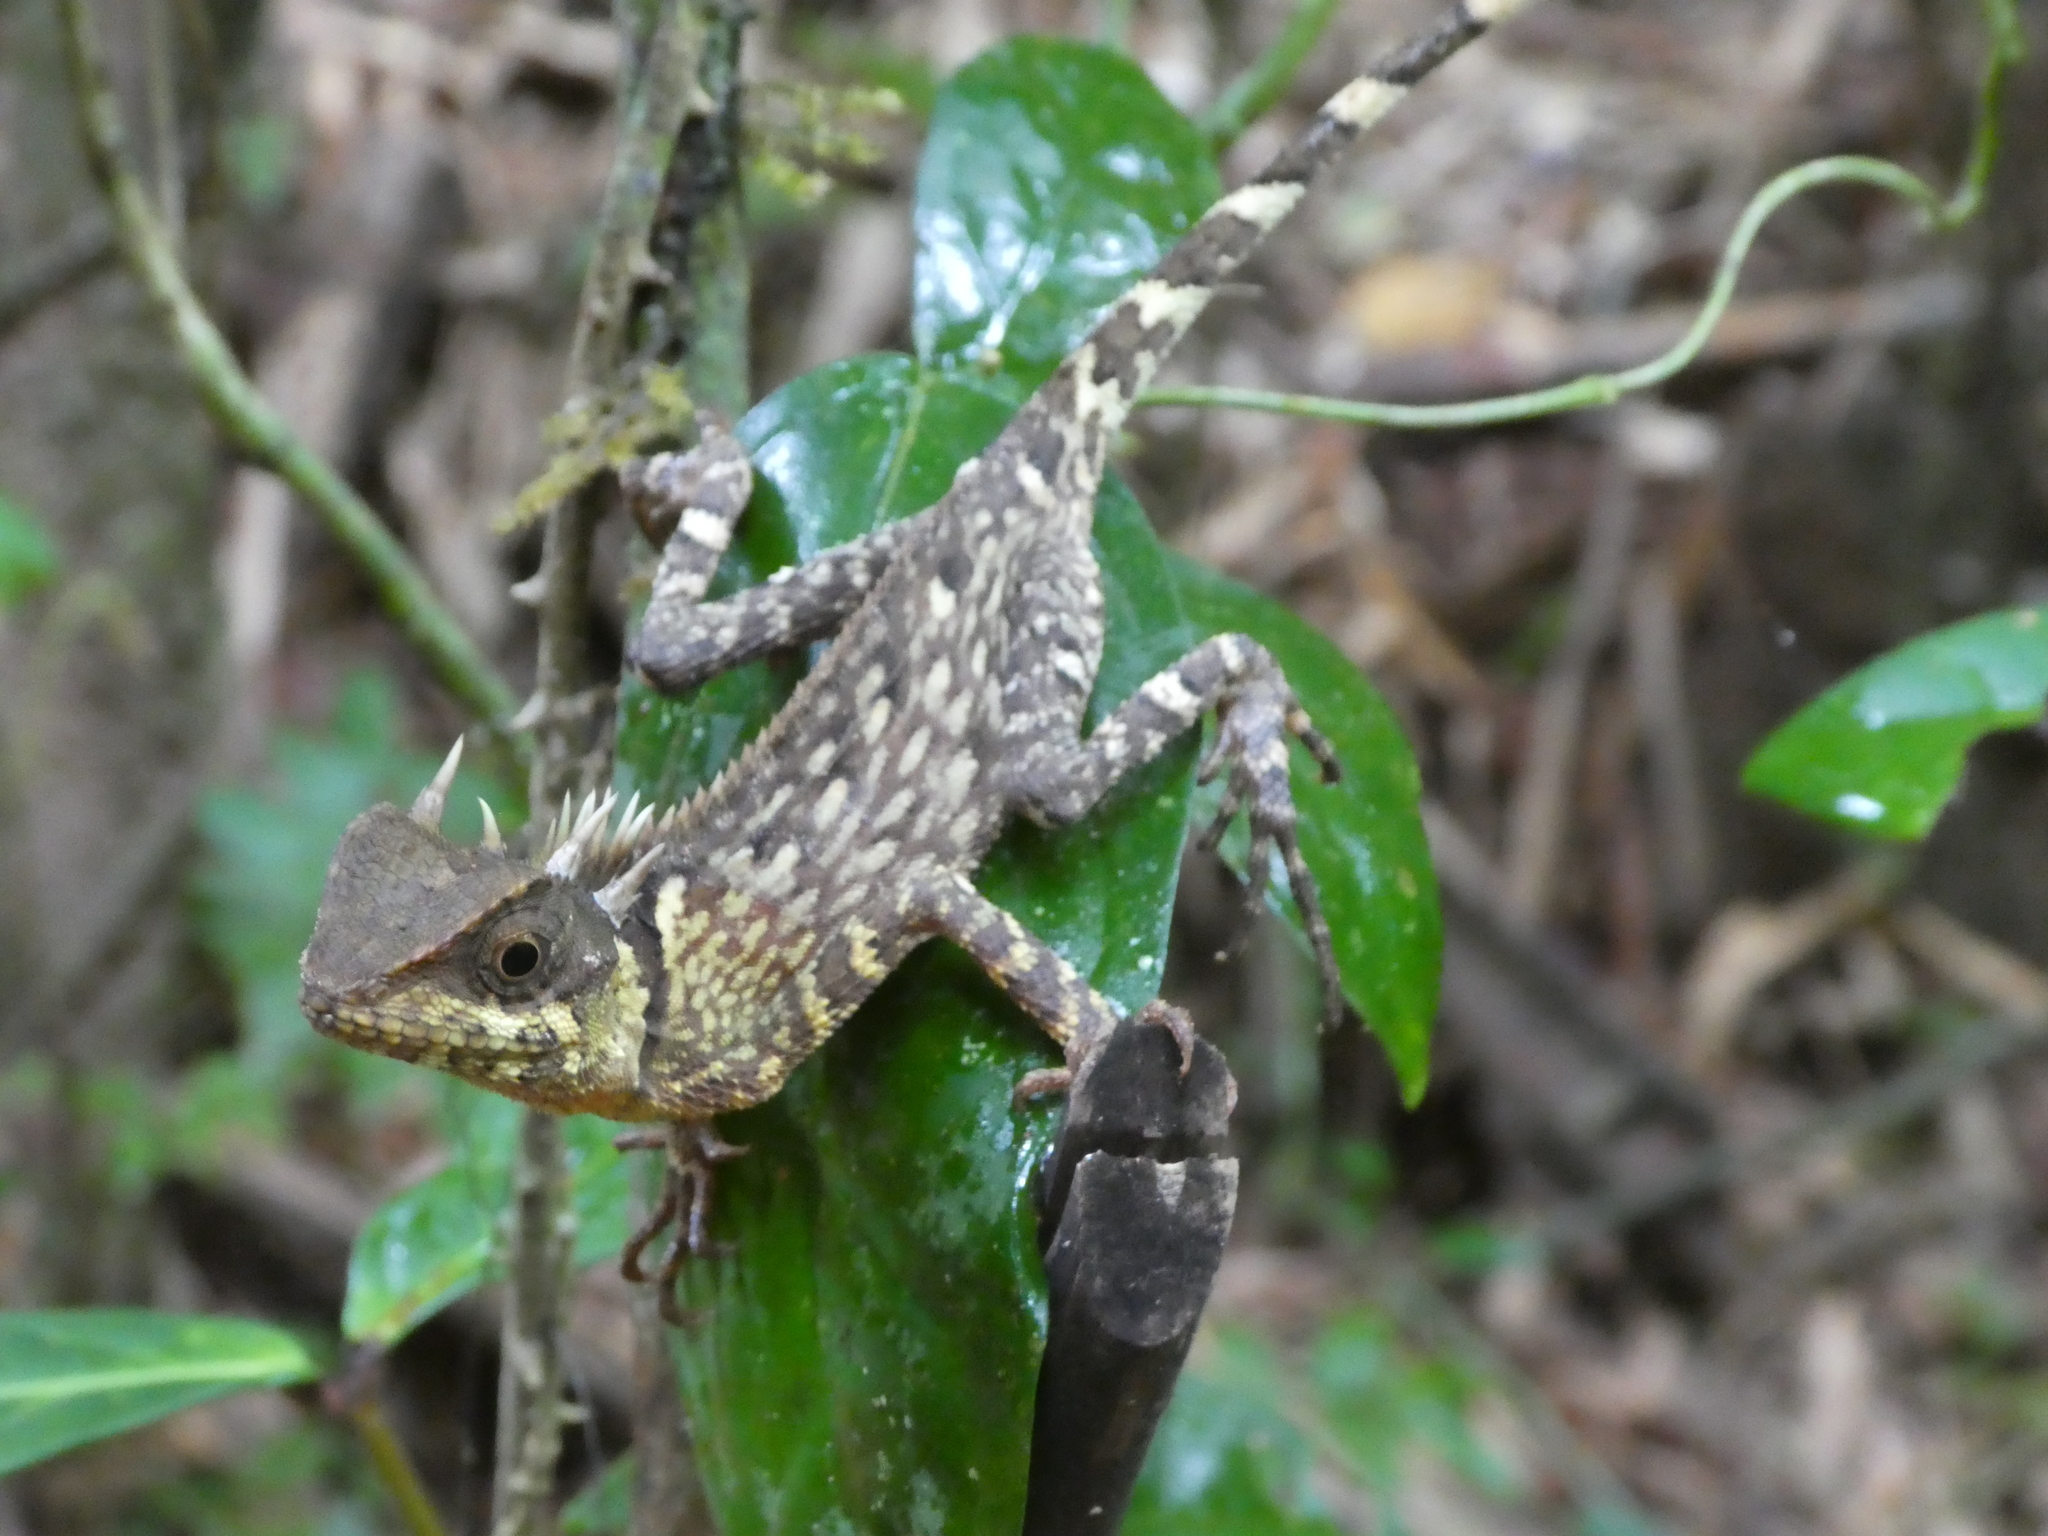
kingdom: Animalia
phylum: Chordata
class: Squamata
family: Agamidae
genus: Acanthosaura
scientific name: Acanthosaura phuketensis
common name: Phuket horned tree agamid
